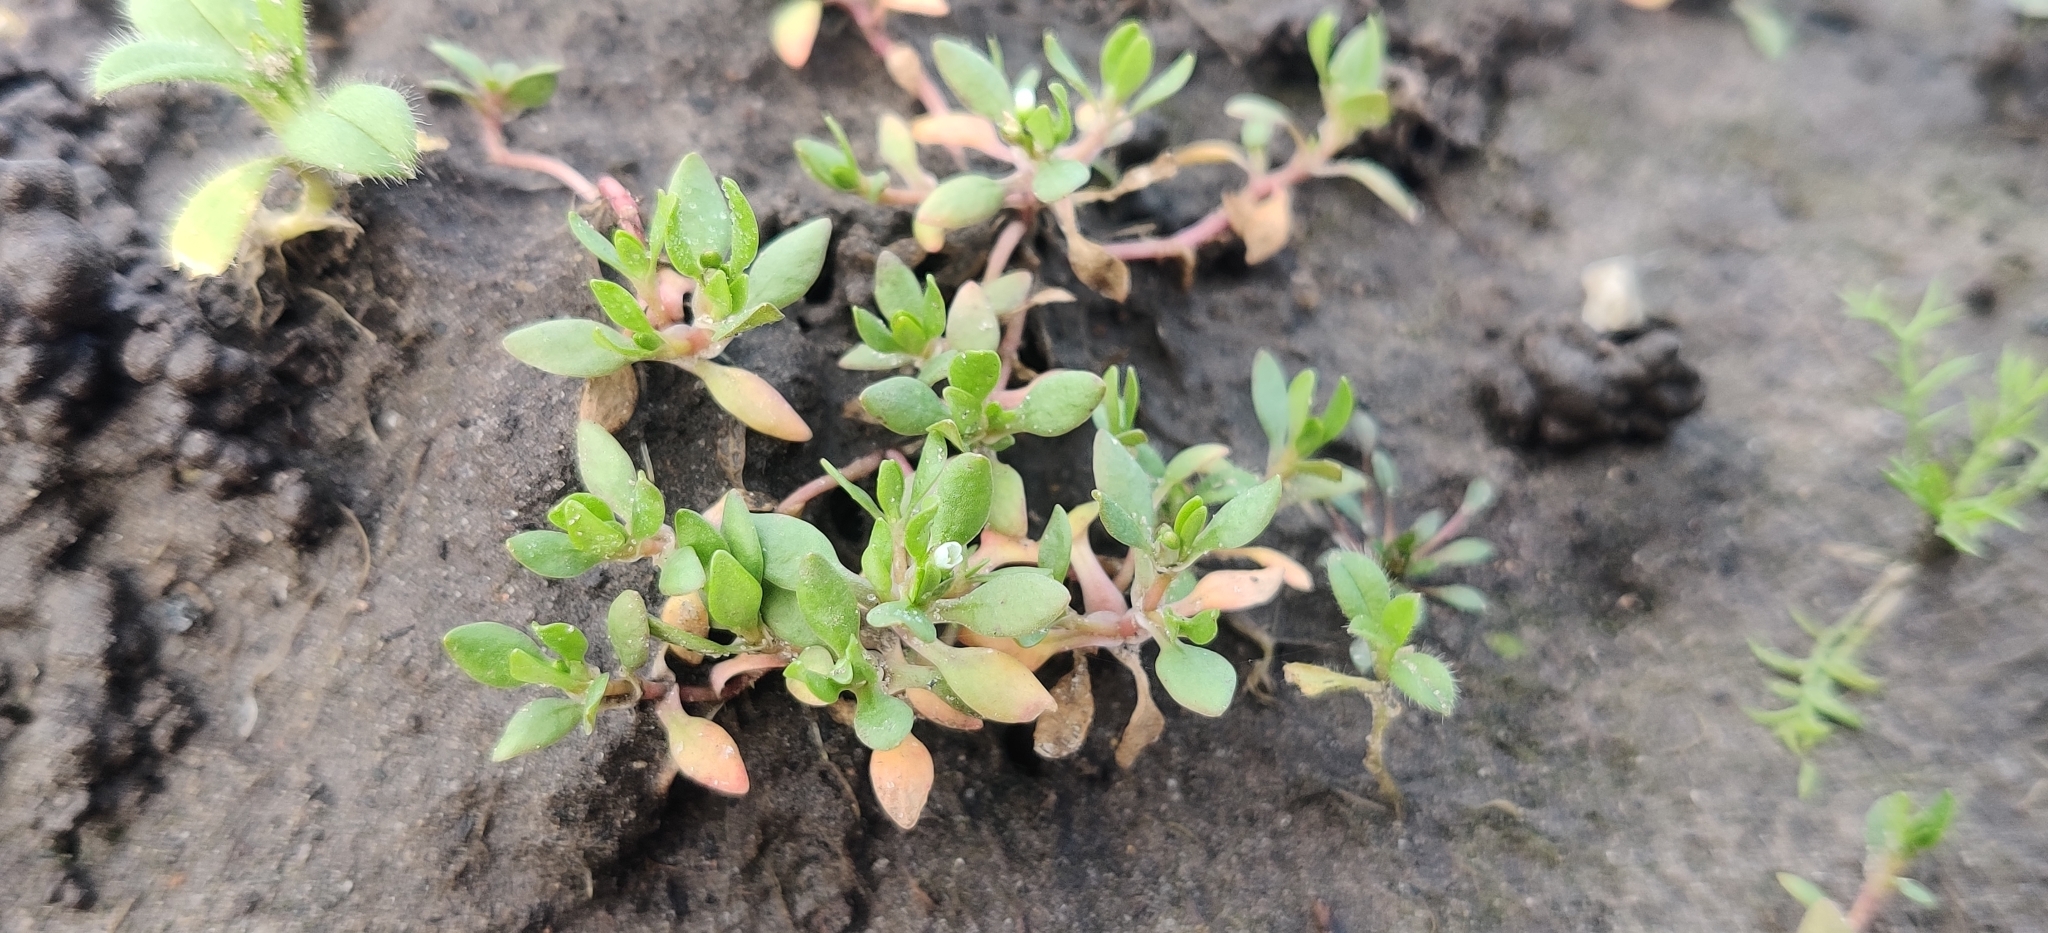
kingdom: Plantae
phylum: Tracheophyta
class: Magnoliopsida
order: Caryophyllales
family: Montiaceae
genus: Montia
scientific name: Montia
